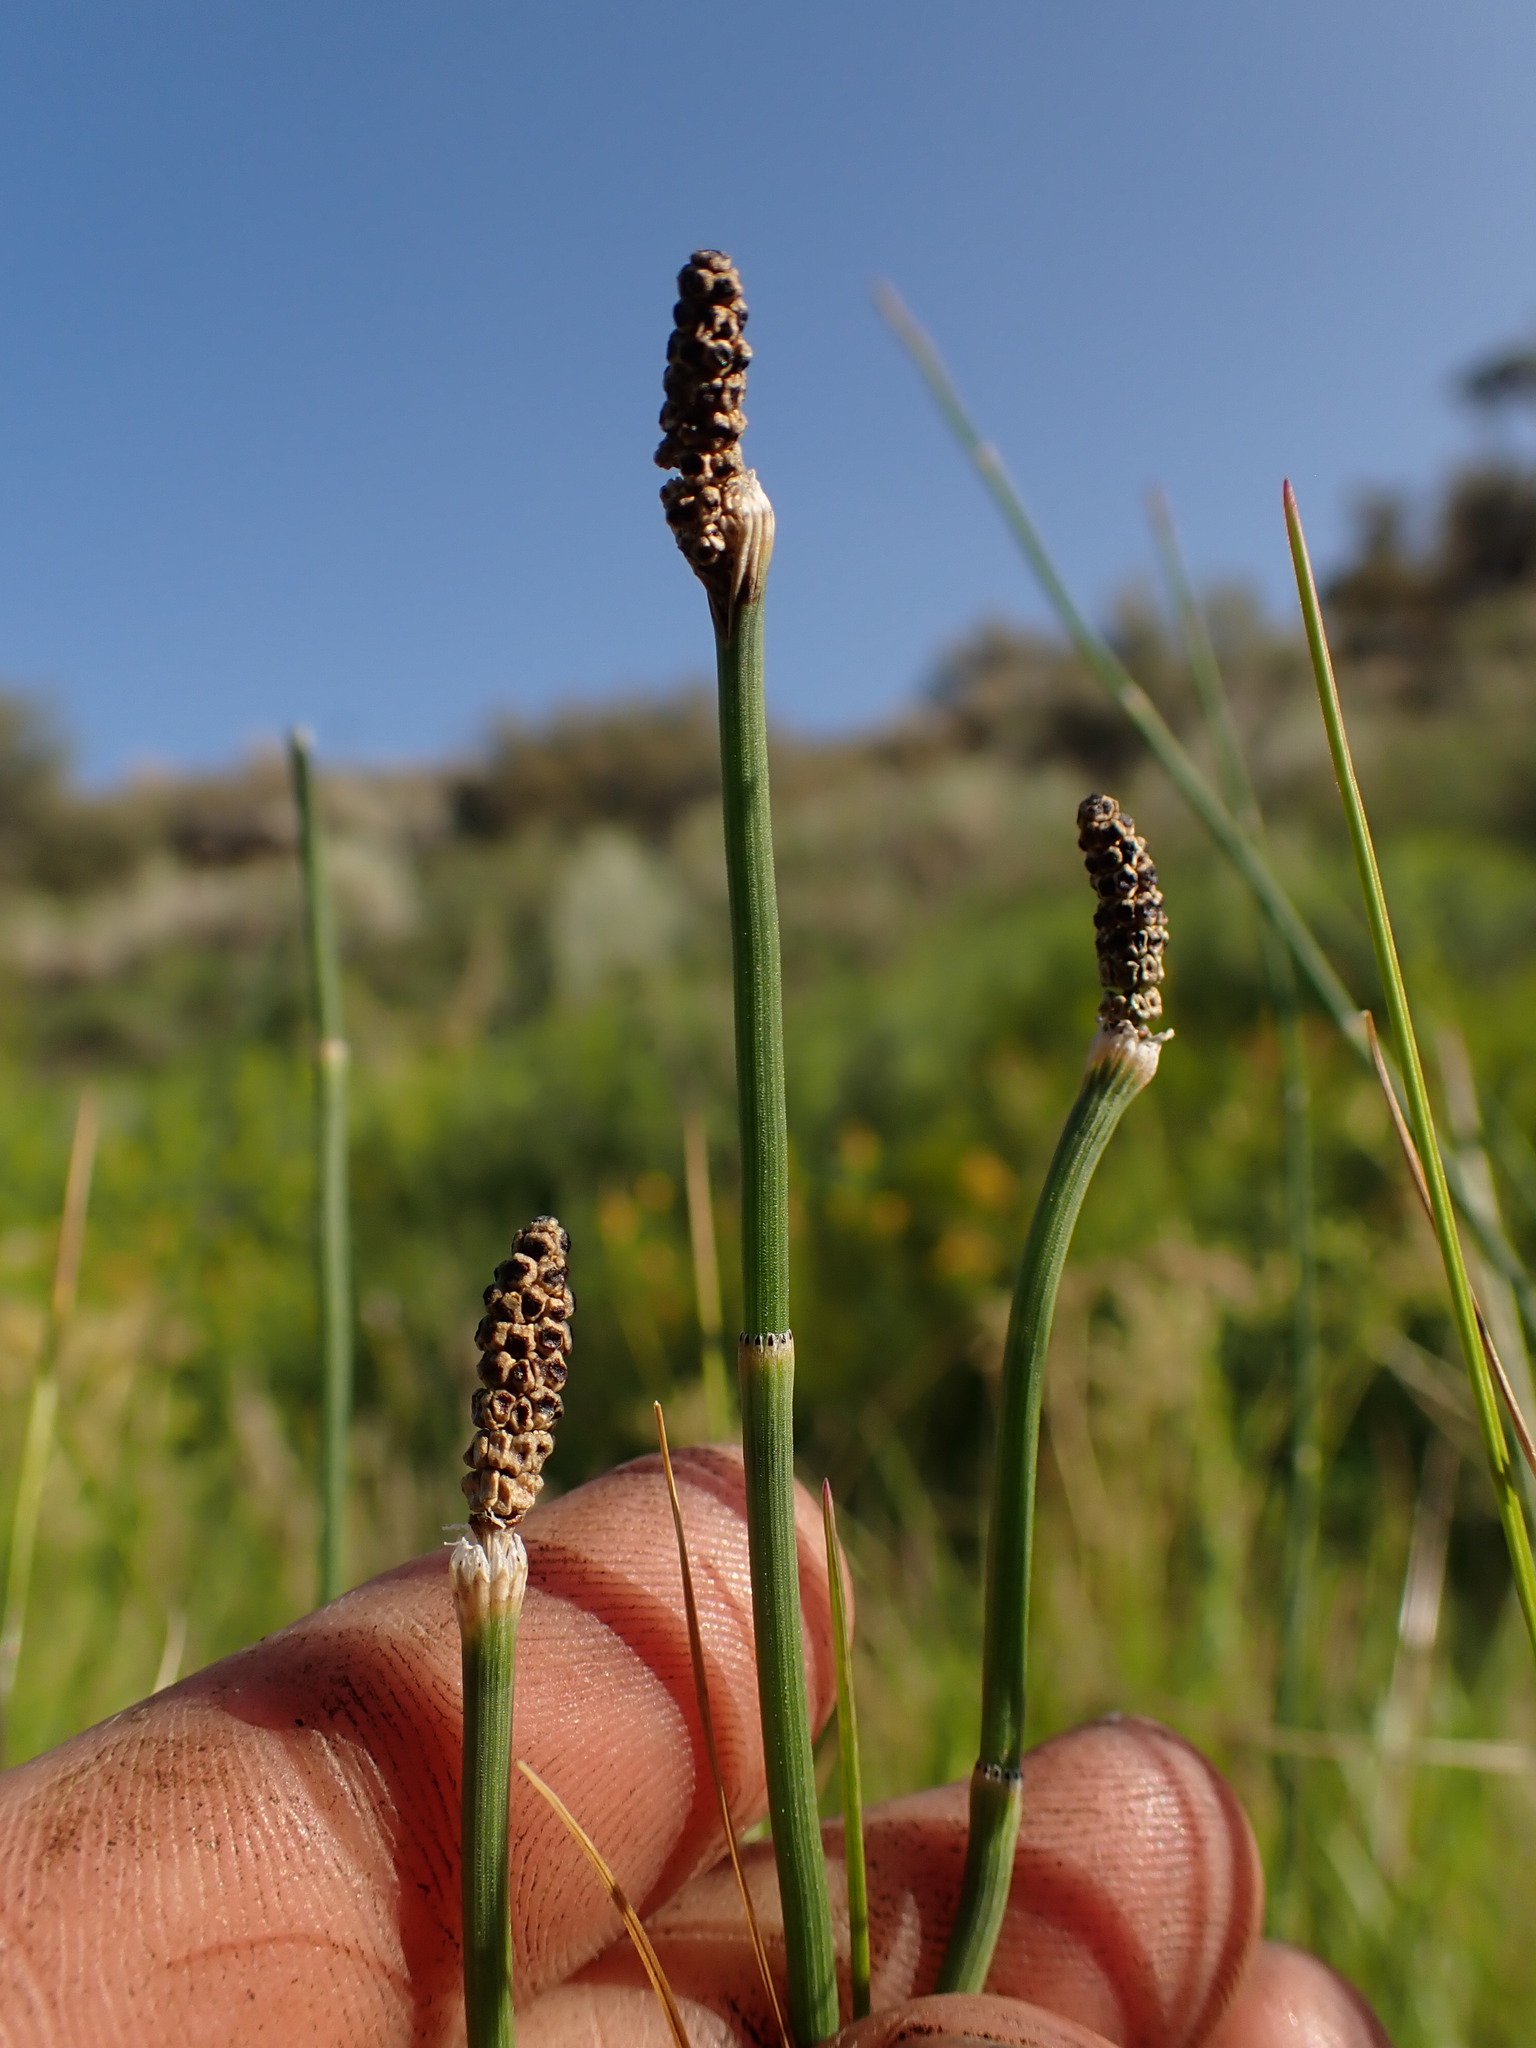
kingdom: Plantae
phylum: Tracheophyta
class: Polypodiopsida
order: Equisetales
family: Equisetaceae
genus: Equisetum
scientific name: Equisetum laevigatum
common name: Smooth scouring-rush
